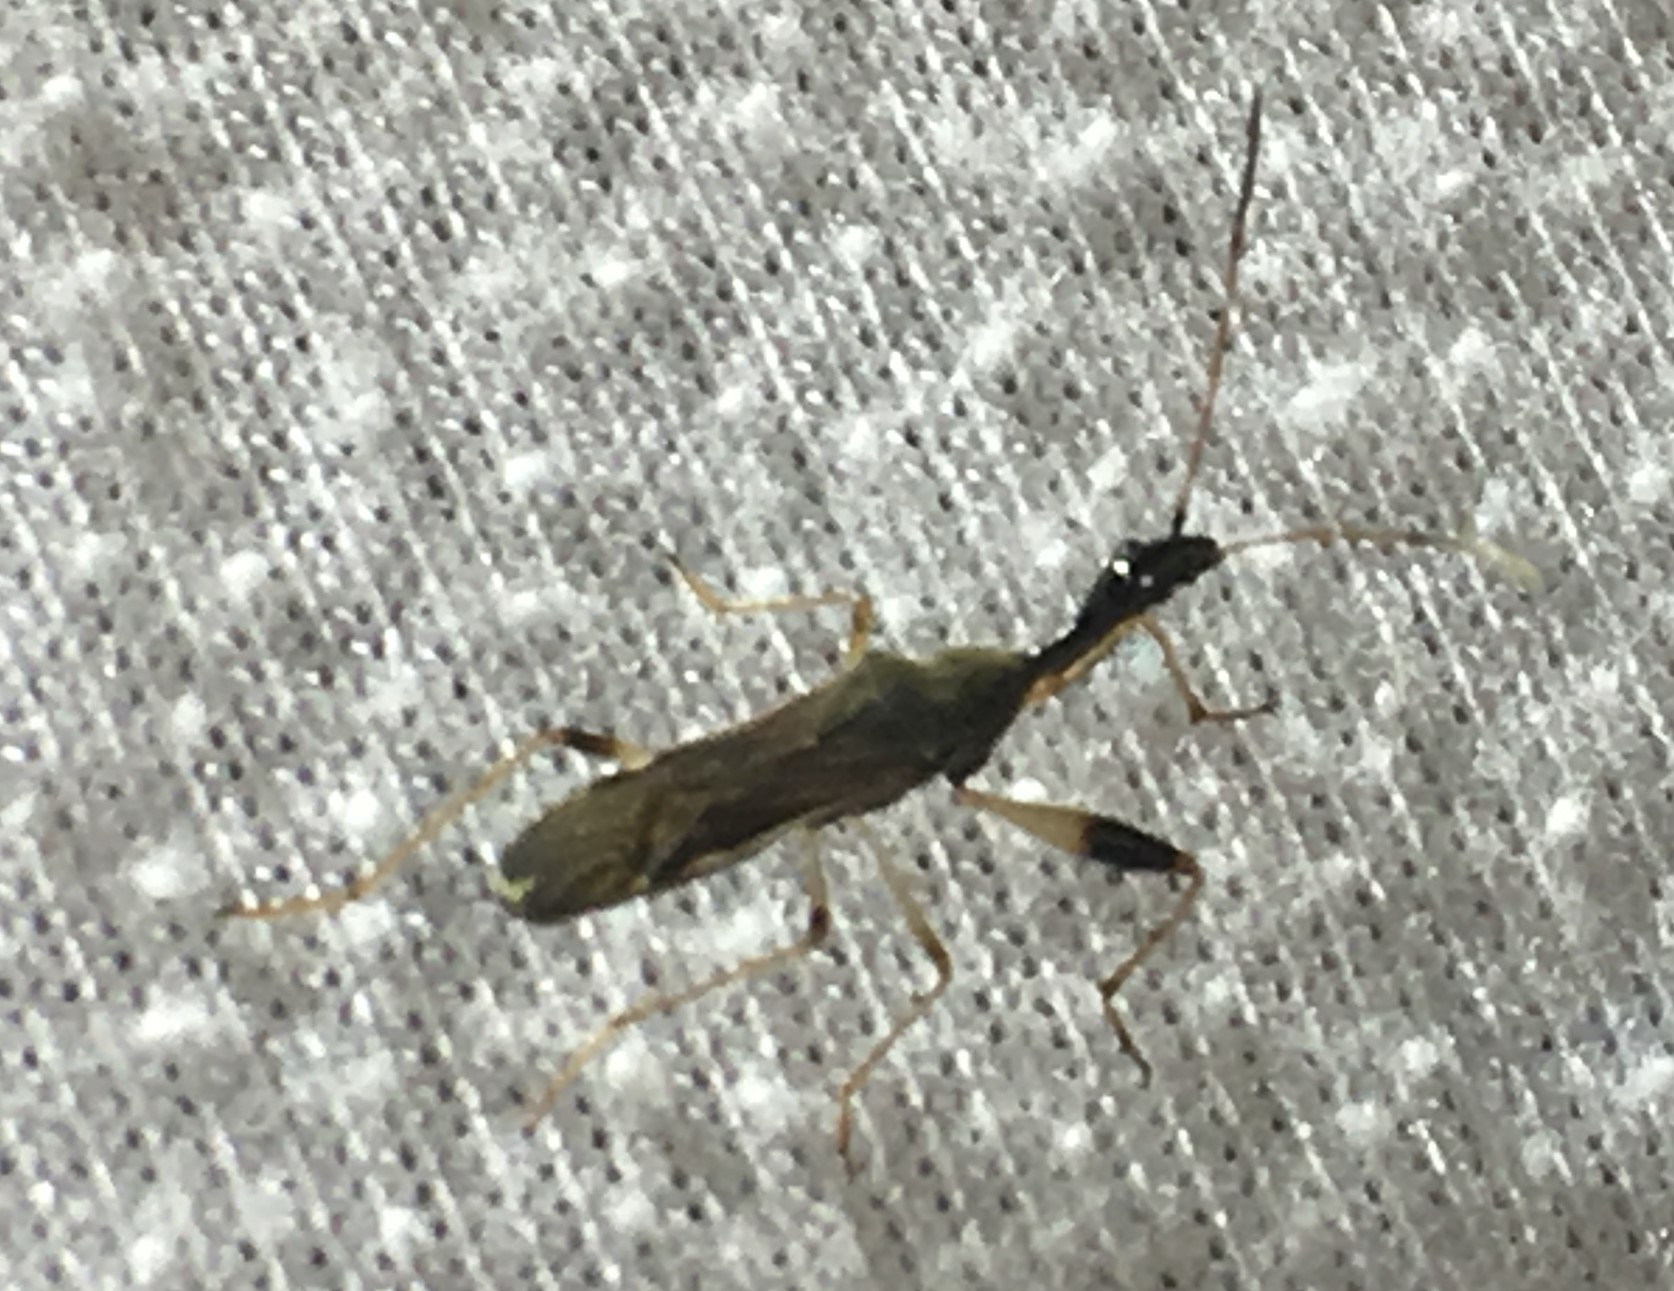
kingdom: Animalia
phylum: Arthropoda
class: Insecta
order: Hemiptera
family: Rhyparochromidae
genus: Myodocha
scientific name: Myodocha serripes
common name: Long-necked seed bug
